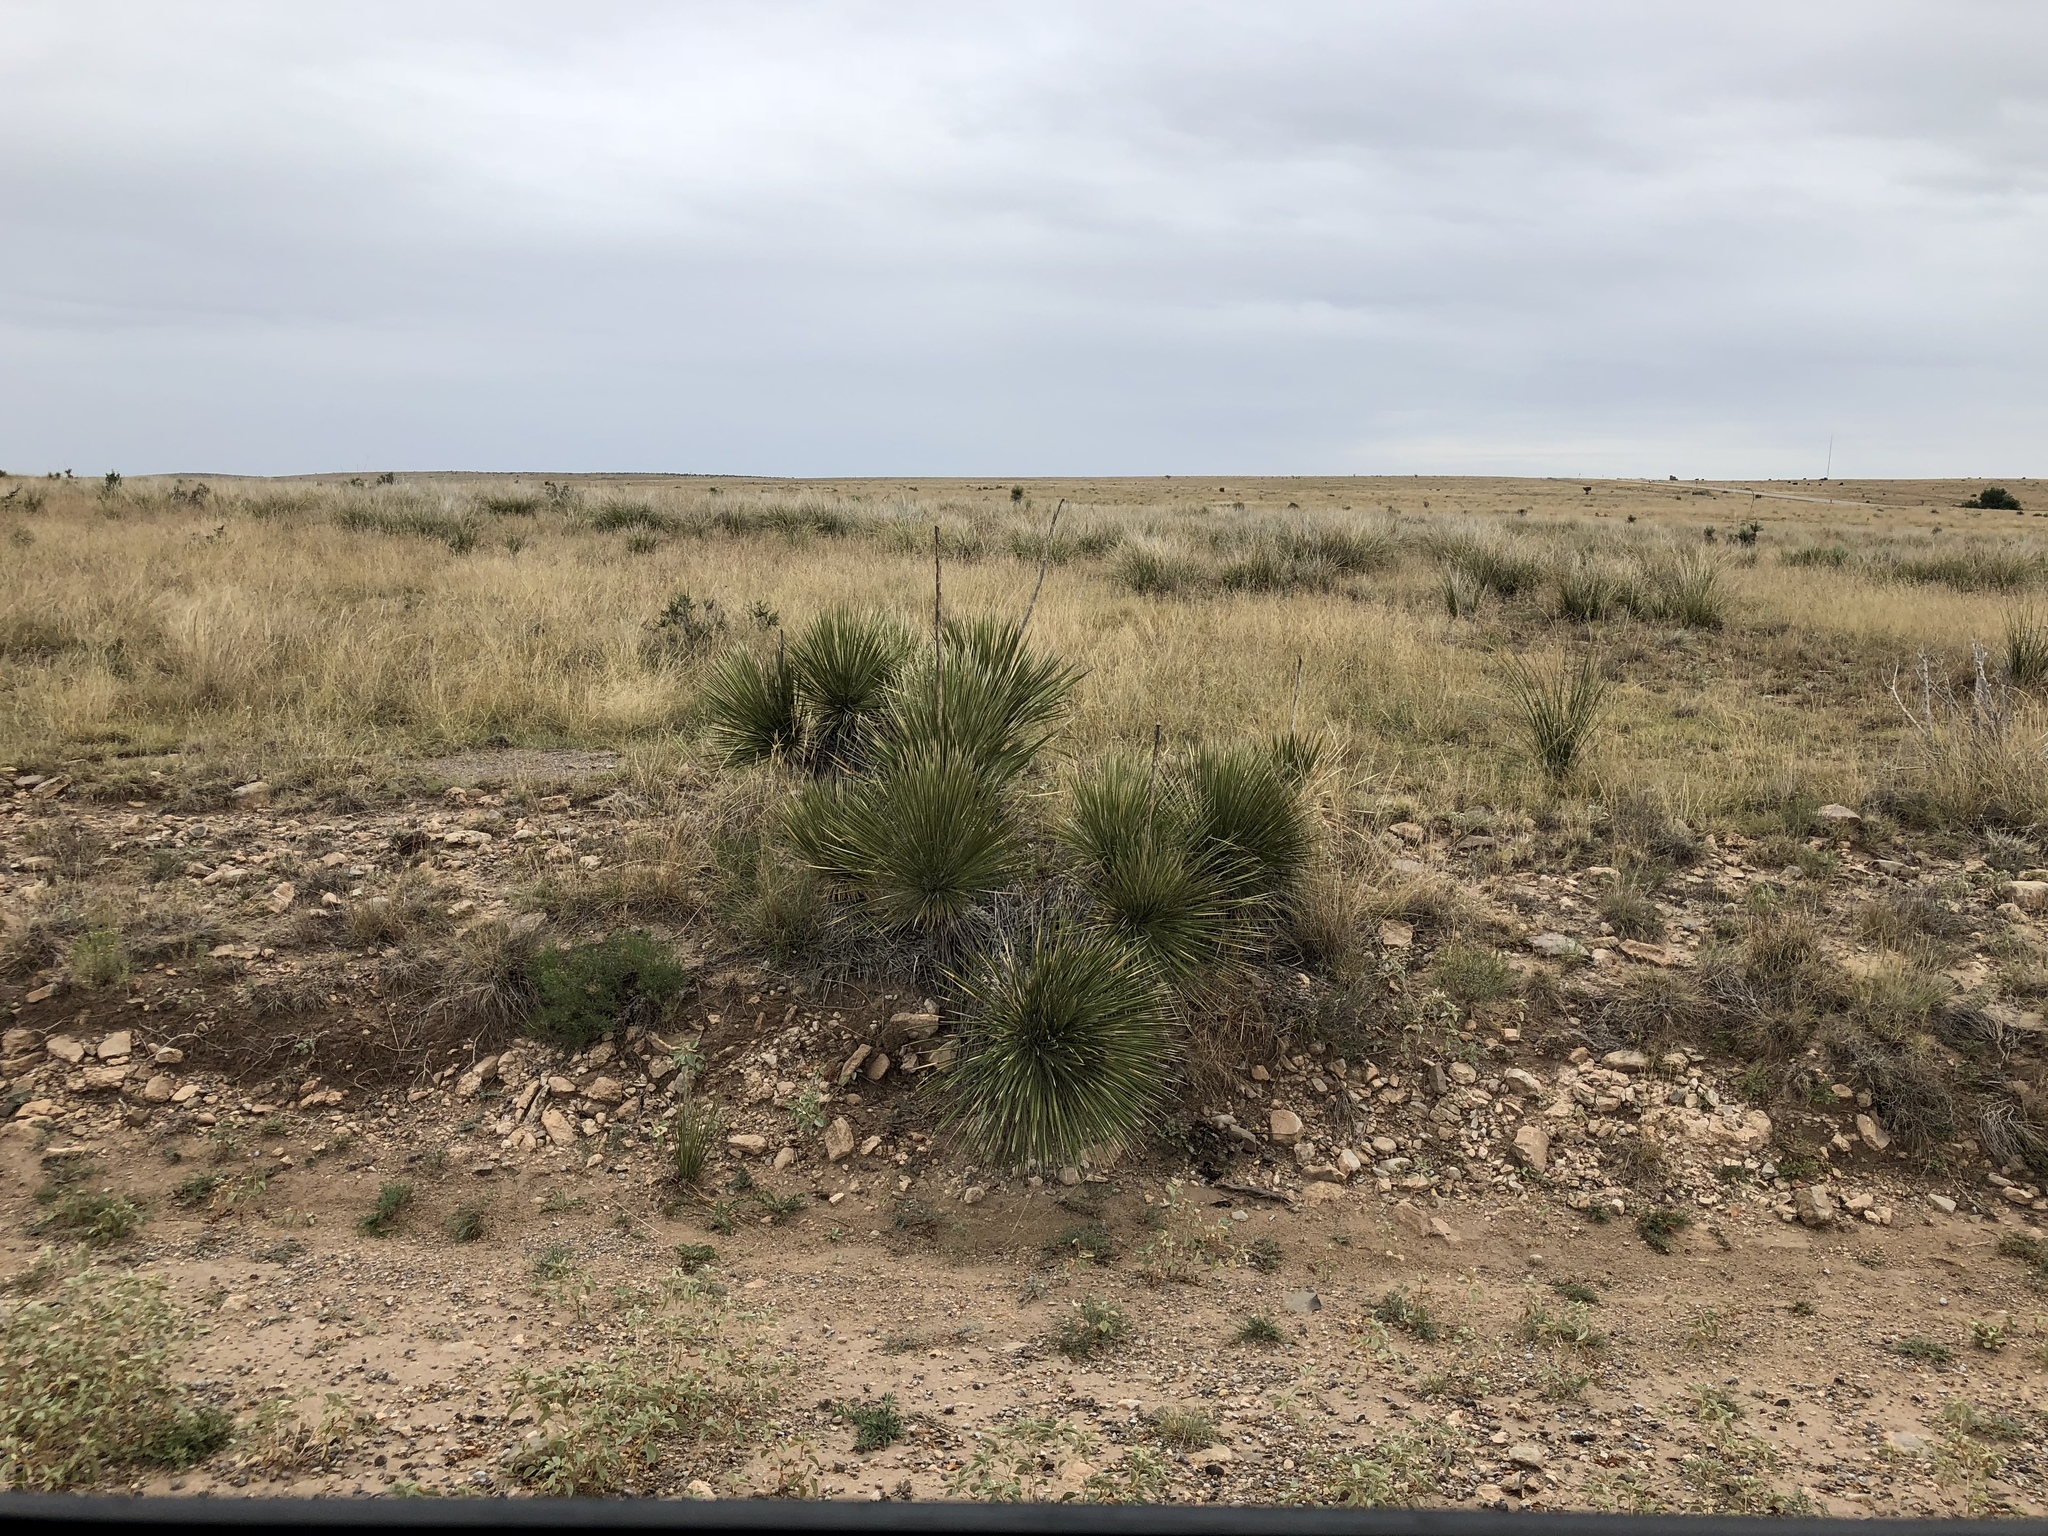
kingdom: Plantae
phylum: Tracheophyta
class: Liliopsida
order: Asparagales
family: Asparagaceae
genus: Dasylirion
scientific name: Dasylirion leiophyllum
